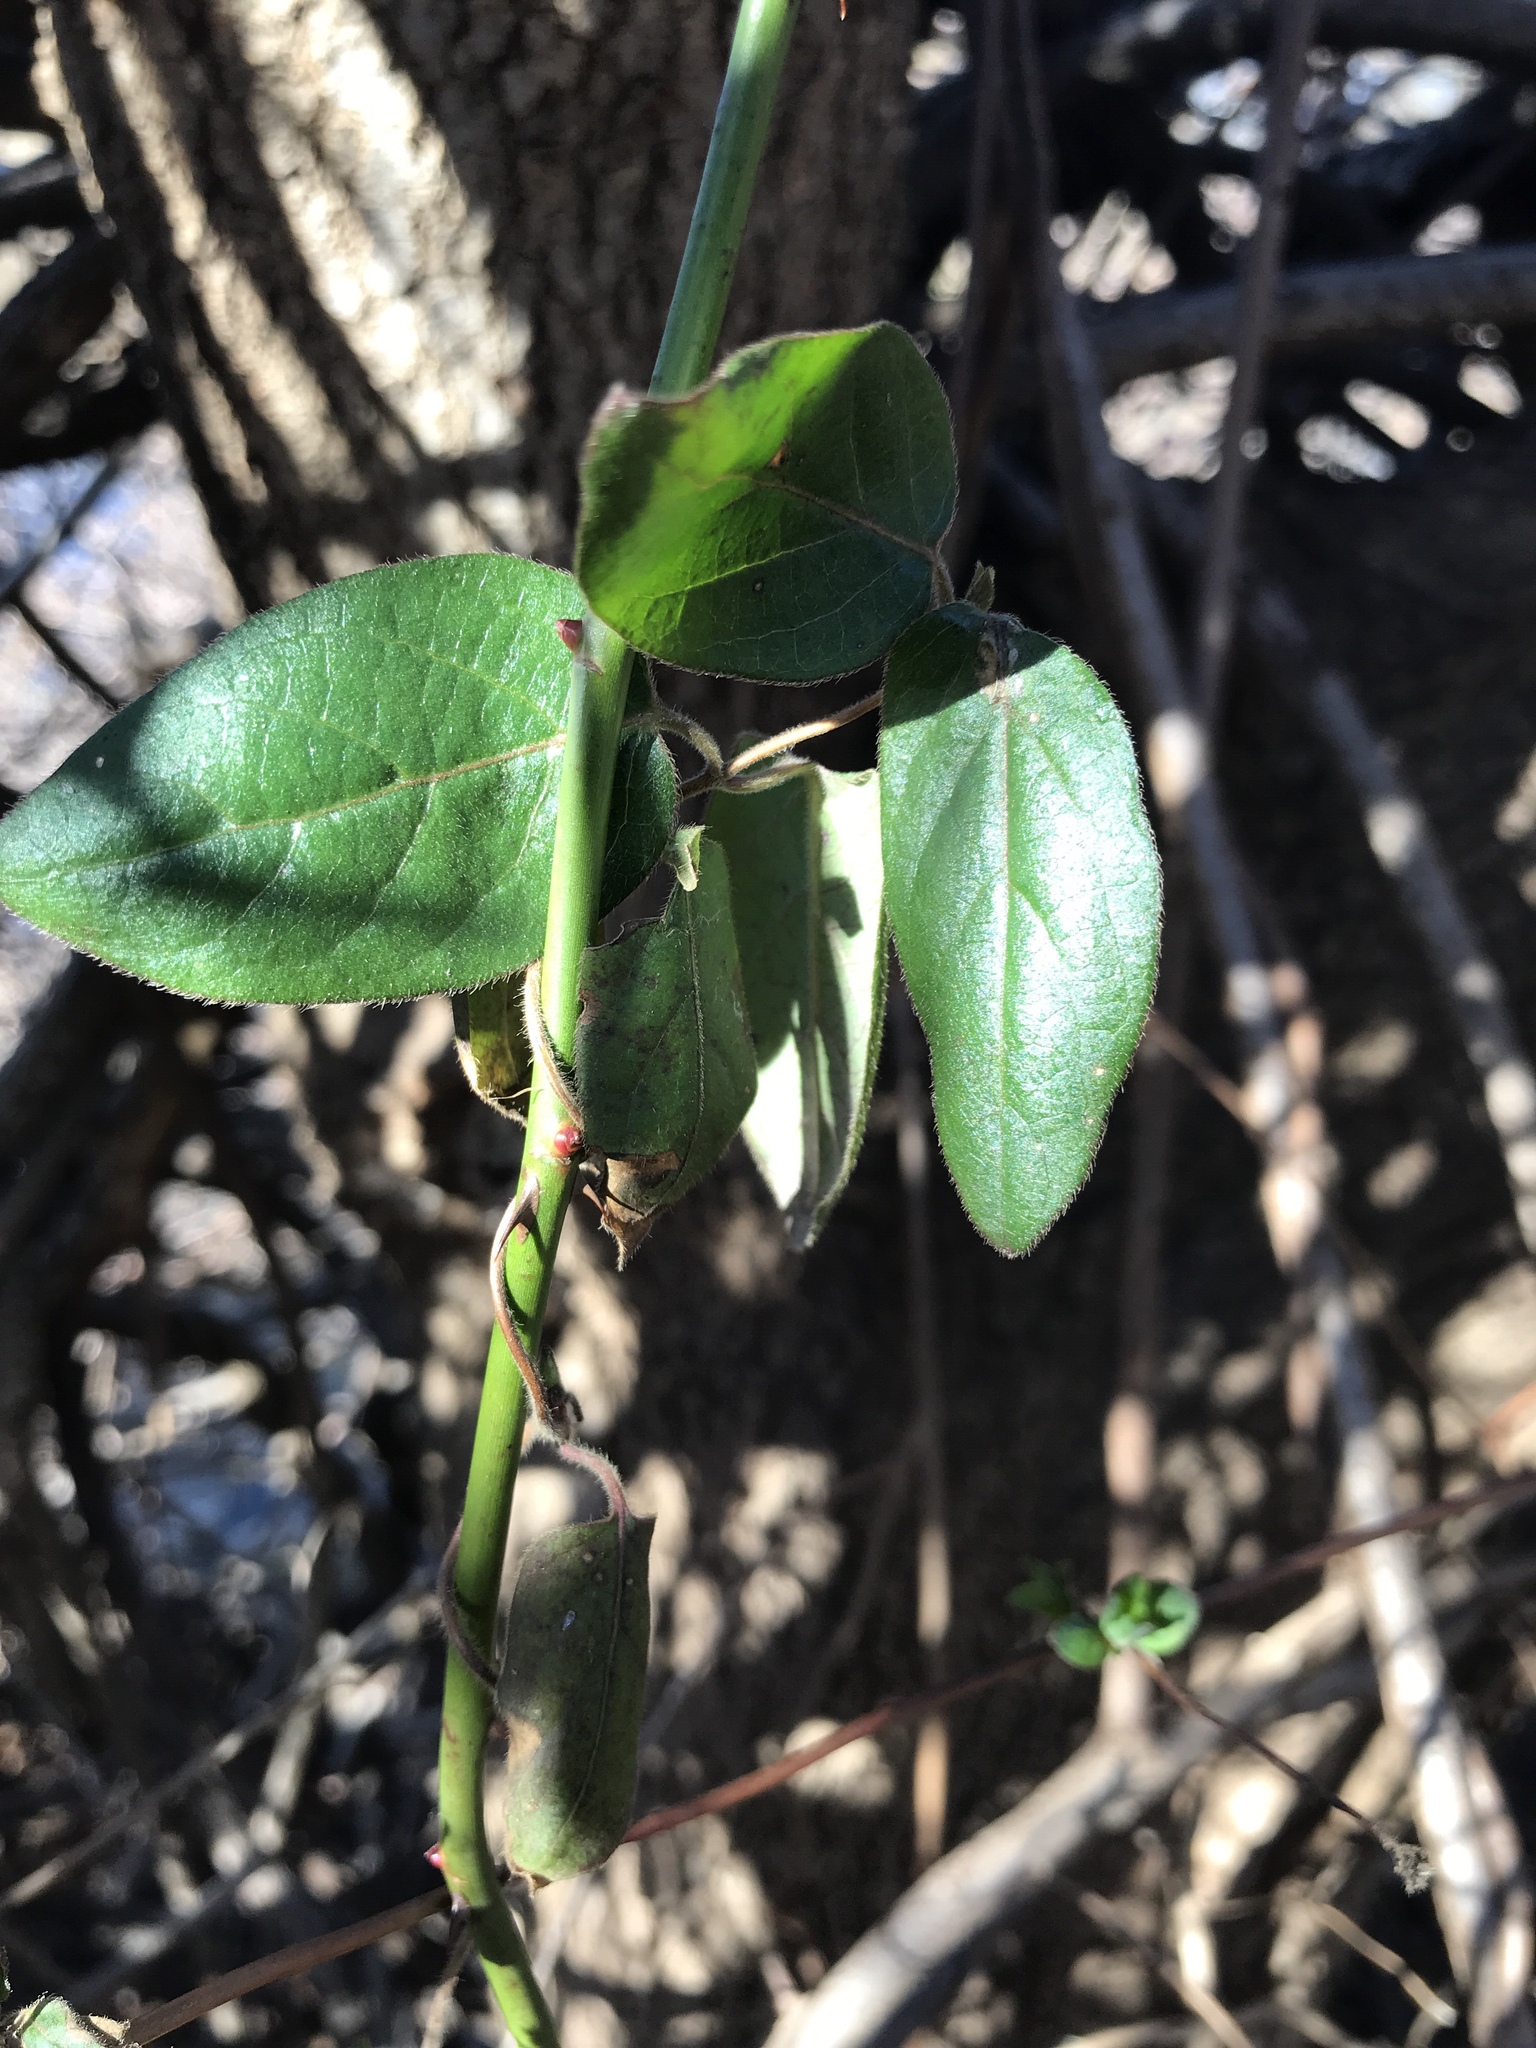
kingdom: Plantae
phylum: Tracheophyta
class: Magnoliopsida
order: Dipsacales
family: Caprifoliaceae
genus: Lonicera
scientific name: Lonicera japonica
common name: Japanese honeysuckle
